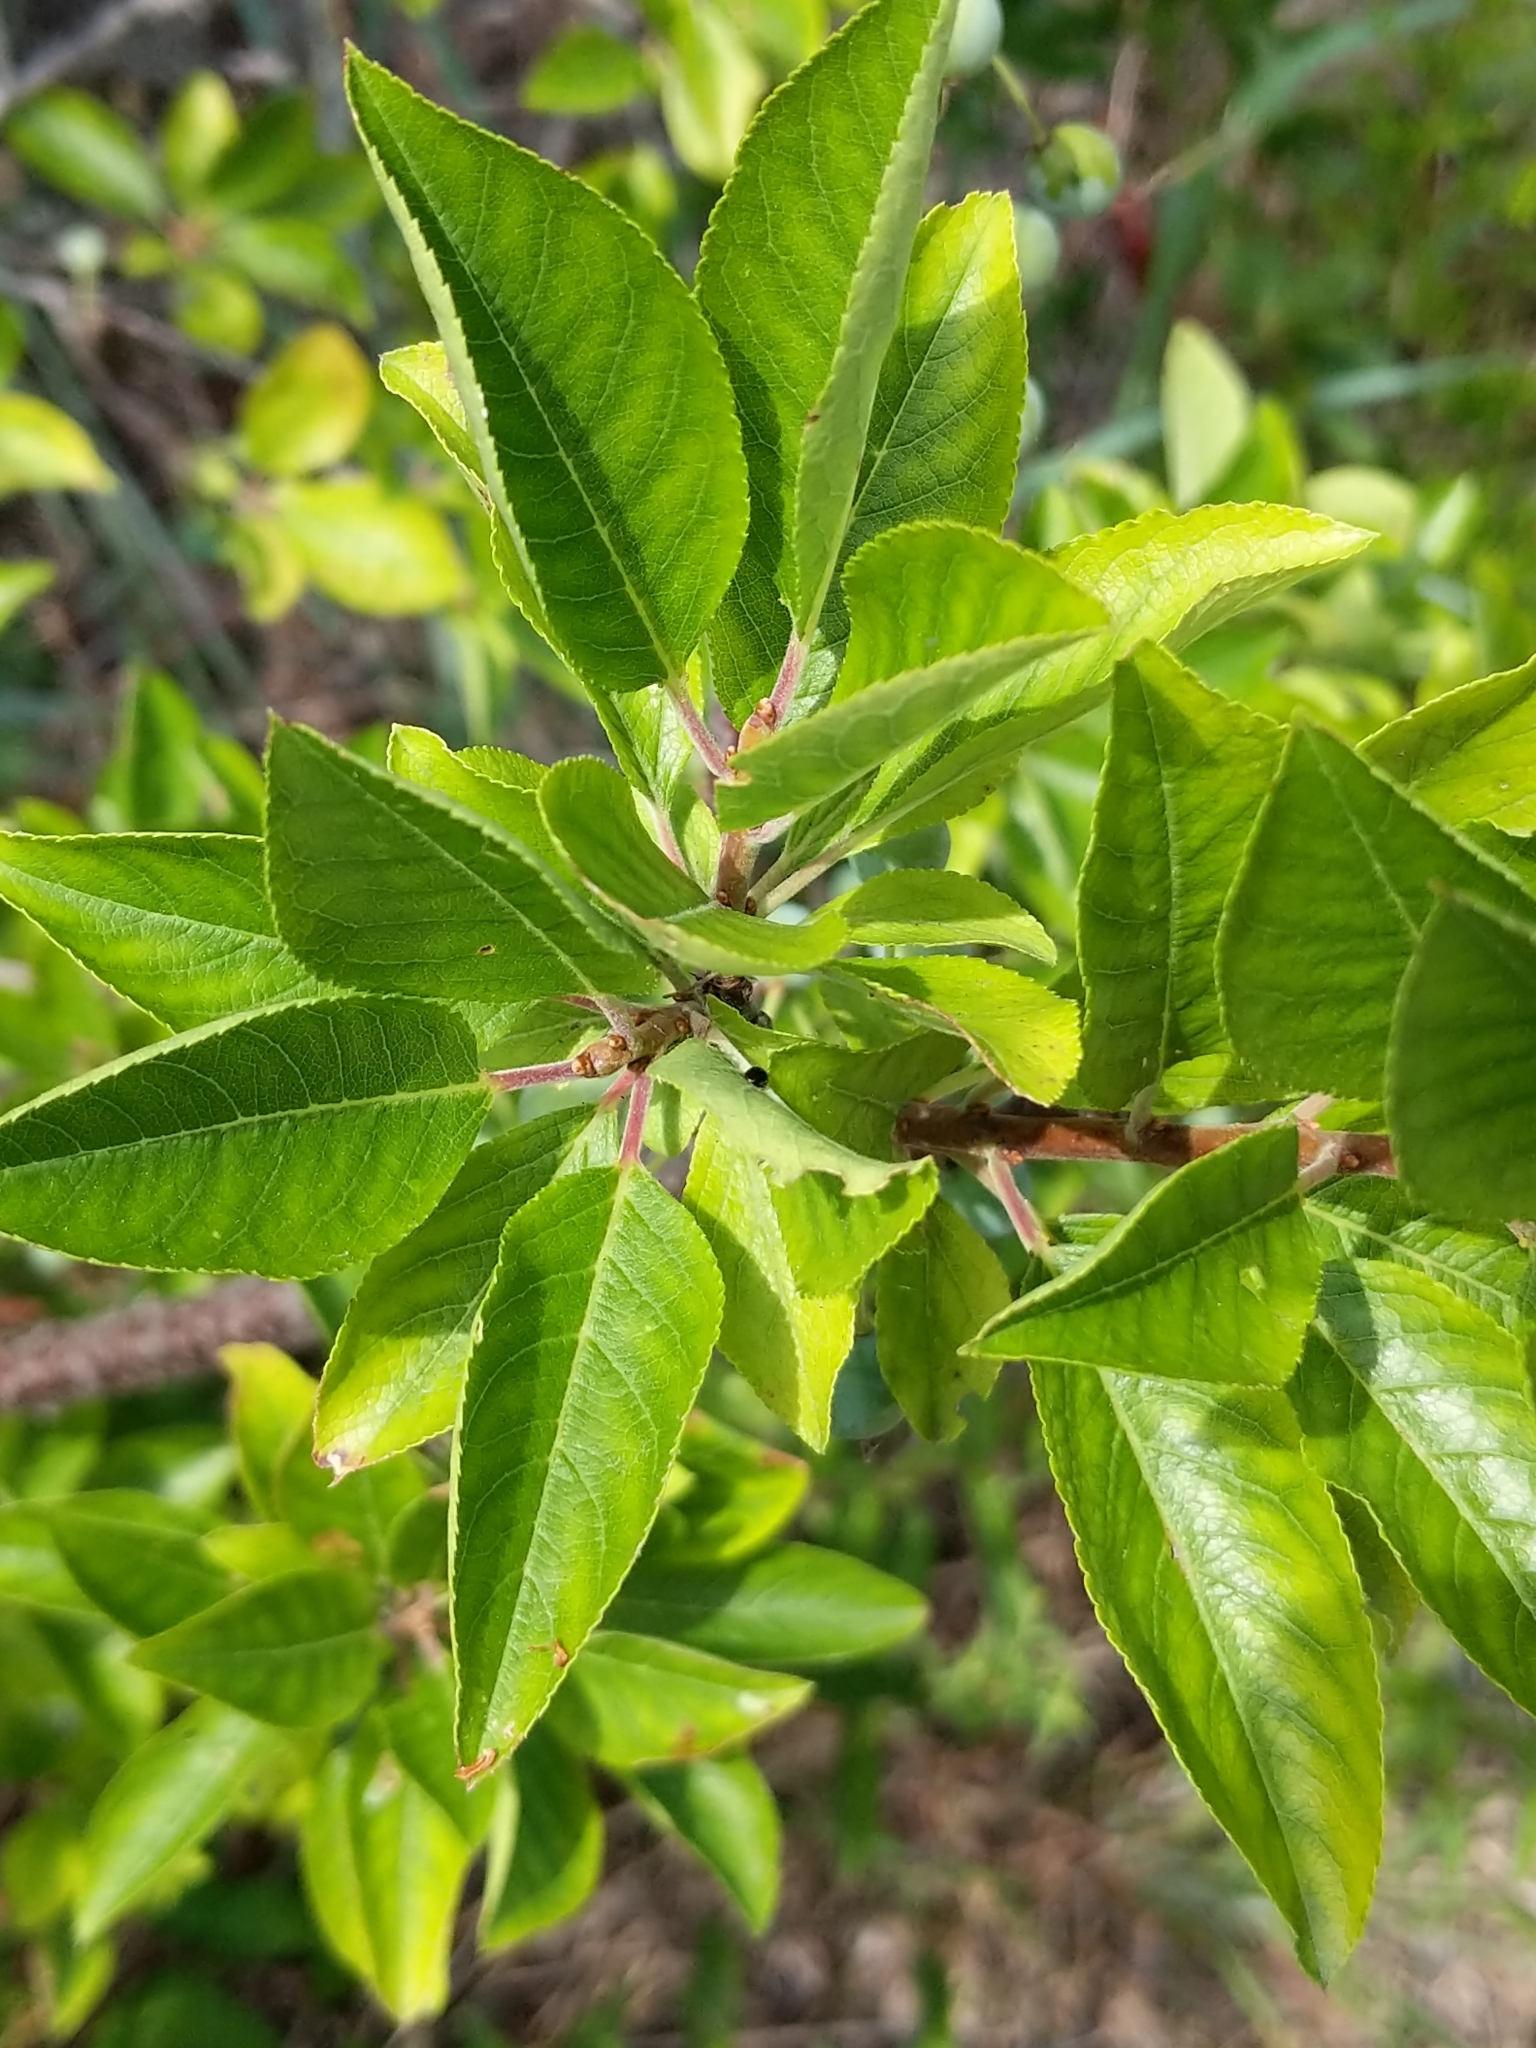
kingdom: Plantae
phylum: Tracheophyta
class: Magnoliopsida
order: Rosales
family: Rosaceae
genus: Prunus
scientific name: Prunus maritima
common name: Beach plum
